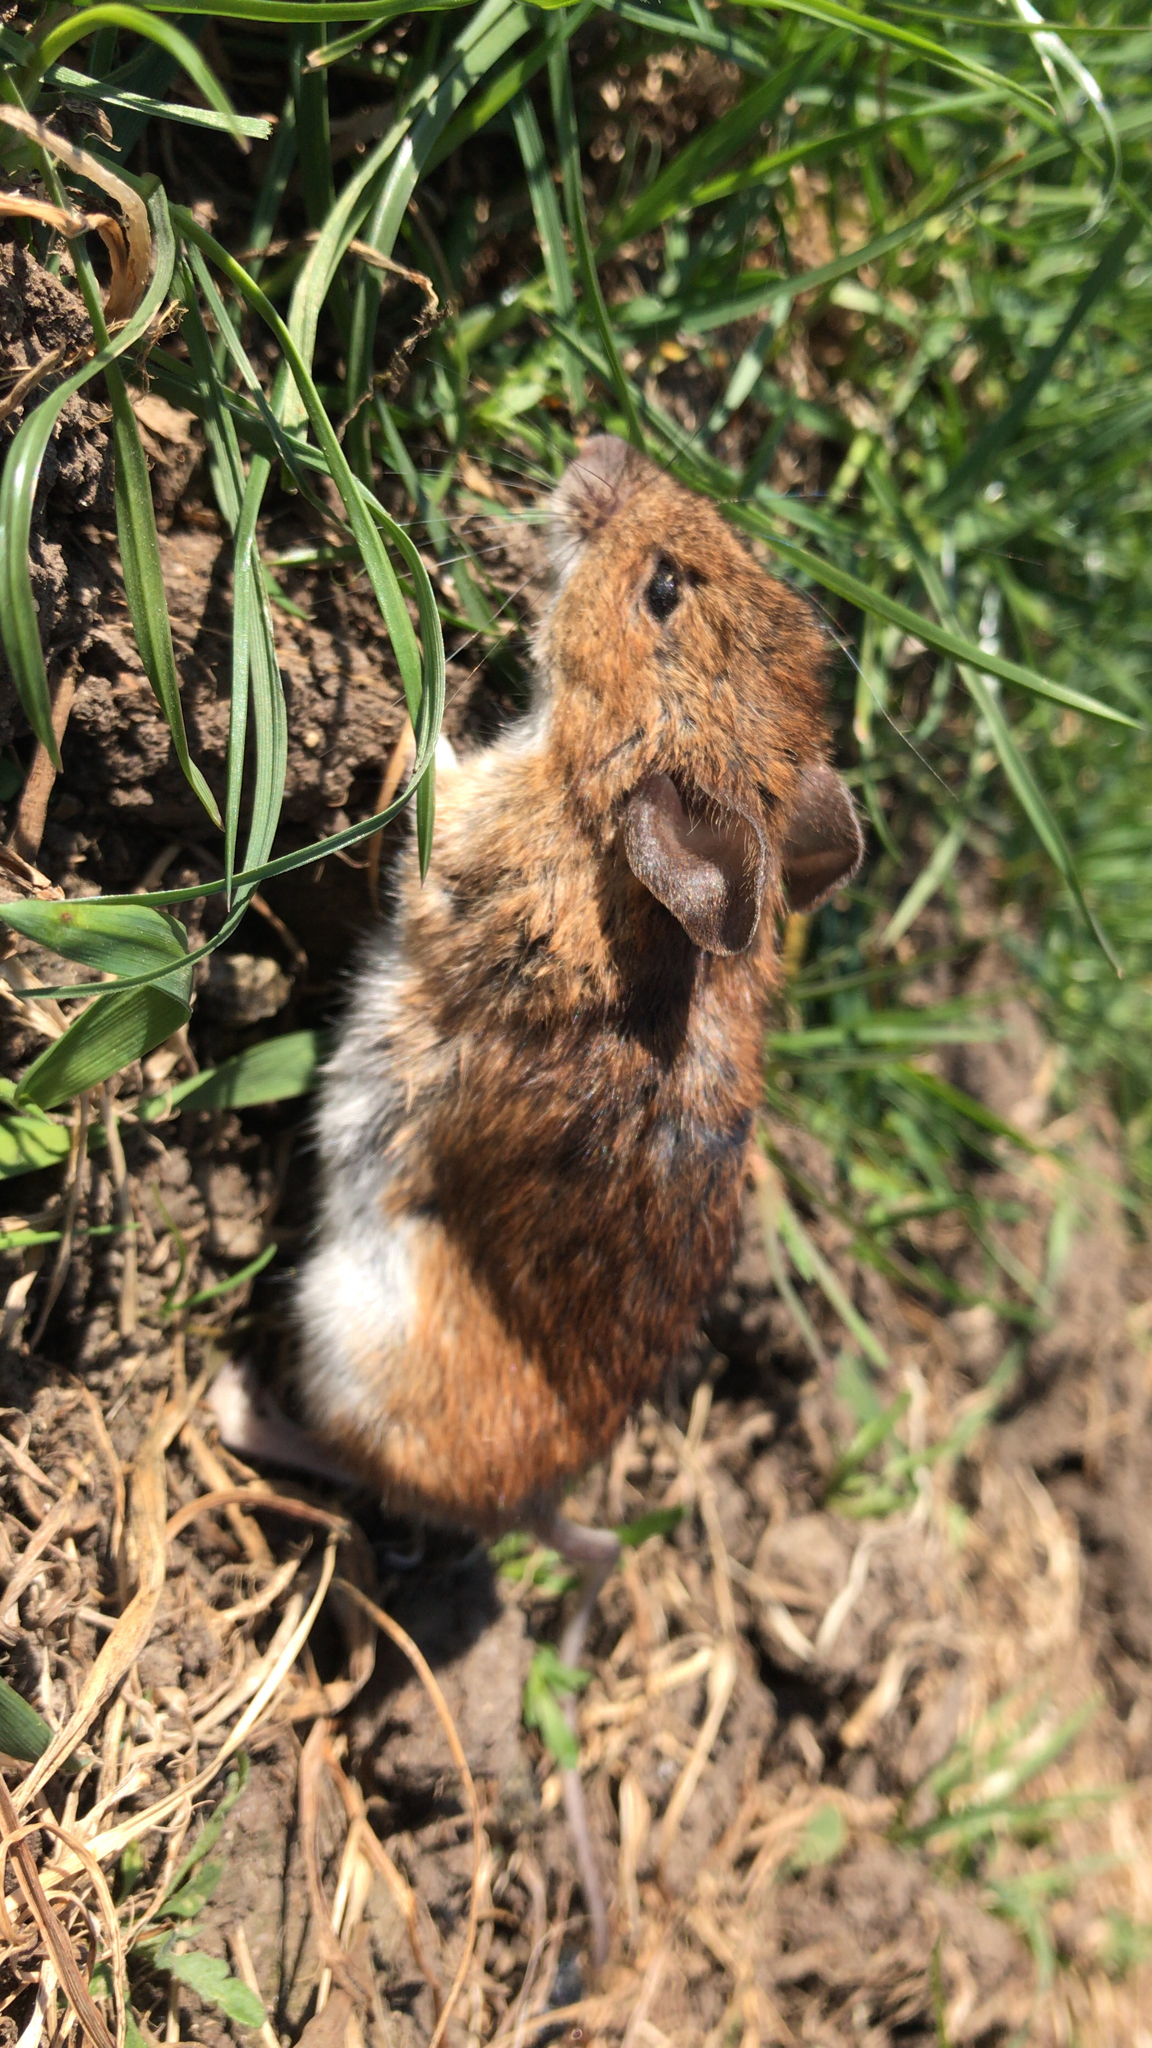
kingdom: Animalia
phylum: Chordata
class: Mammalia
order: Rodentia
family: Cricetidae
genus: Myodes
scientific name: Myodes glareolus
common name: Bank vole
